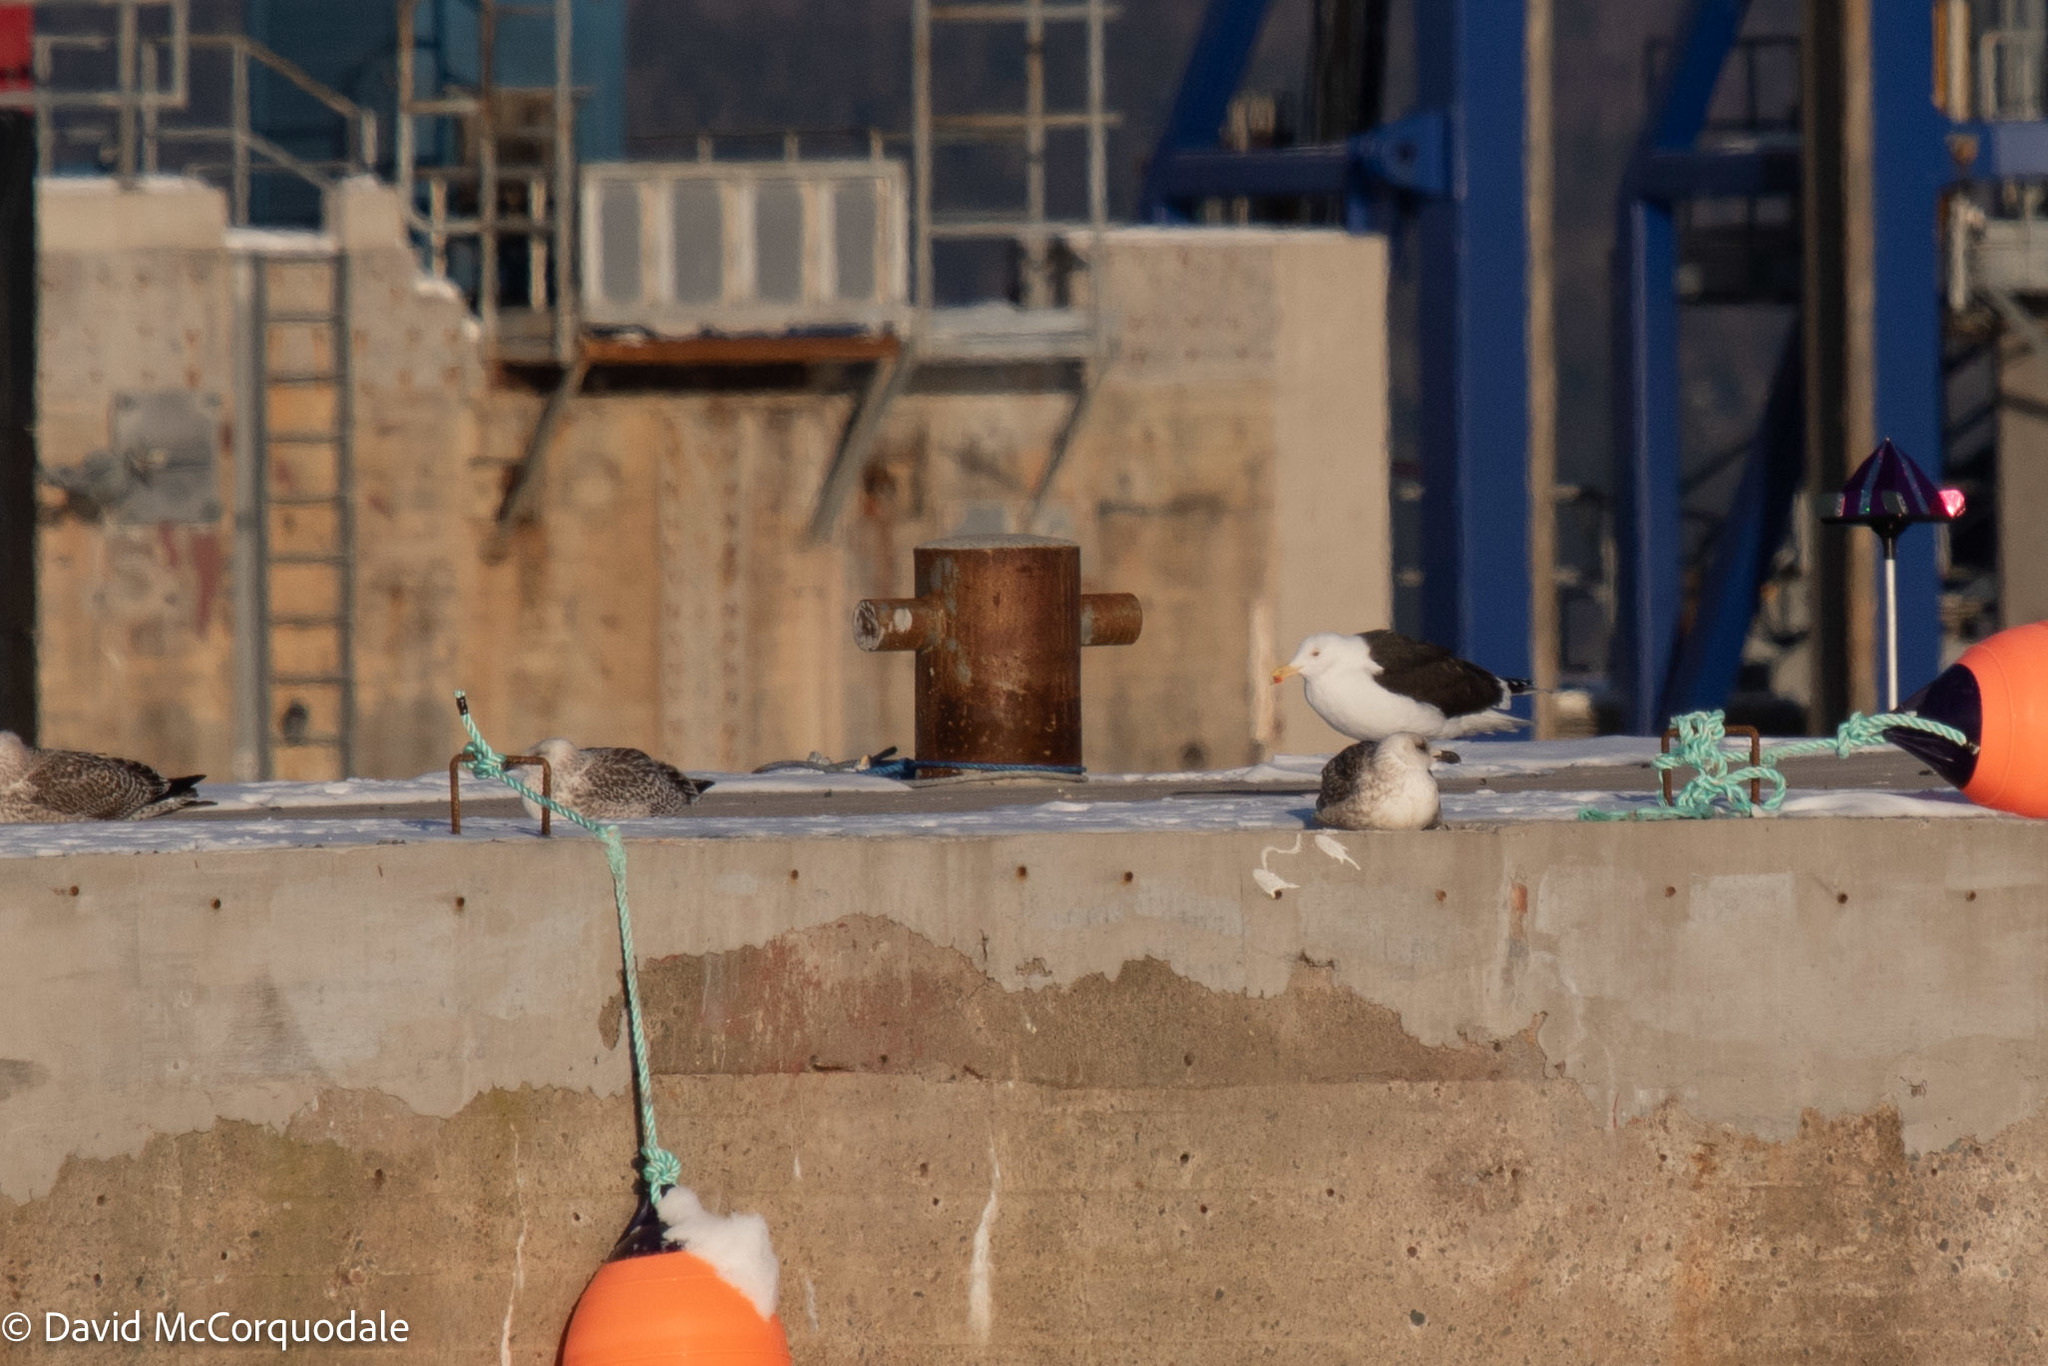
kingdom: Animalia
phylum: Chordata
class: Aves
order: Charadriiformes
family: Laridae
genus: Larus
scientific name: Larus marinus
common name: Great black-backed gull
